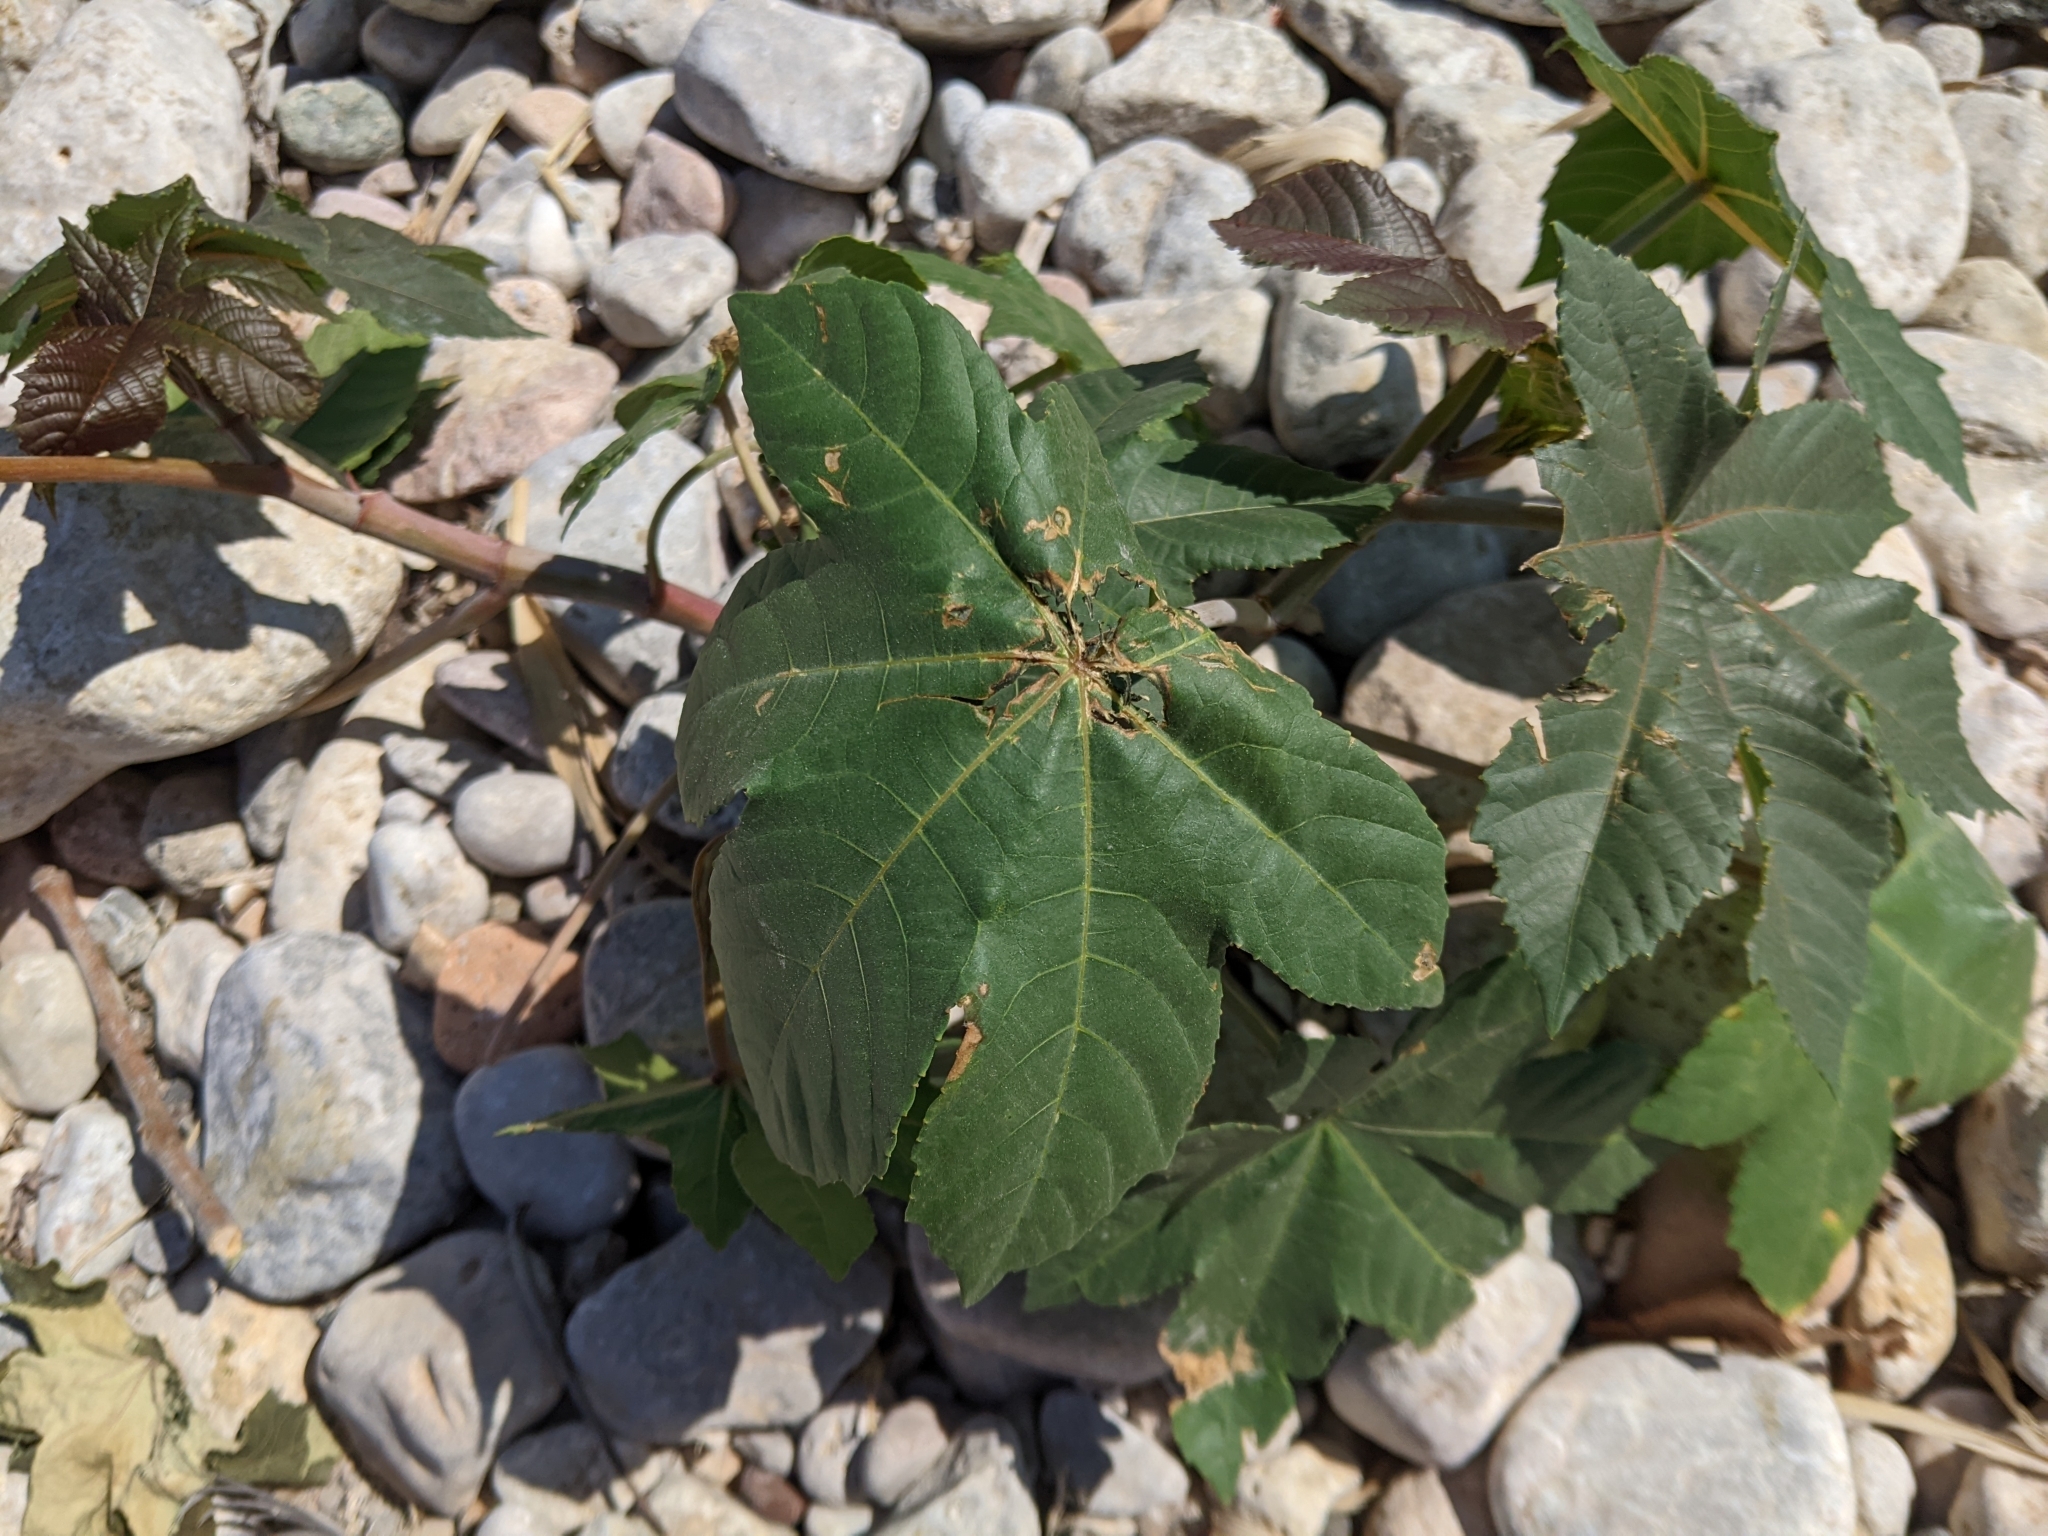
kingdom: Plantae
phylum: Tracheophyta
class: Magnoliopsida
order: Malpighiales
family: Euphorbiaceae
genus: Ricinus
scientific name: Ricinus communis
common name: Castor-oil-plant
